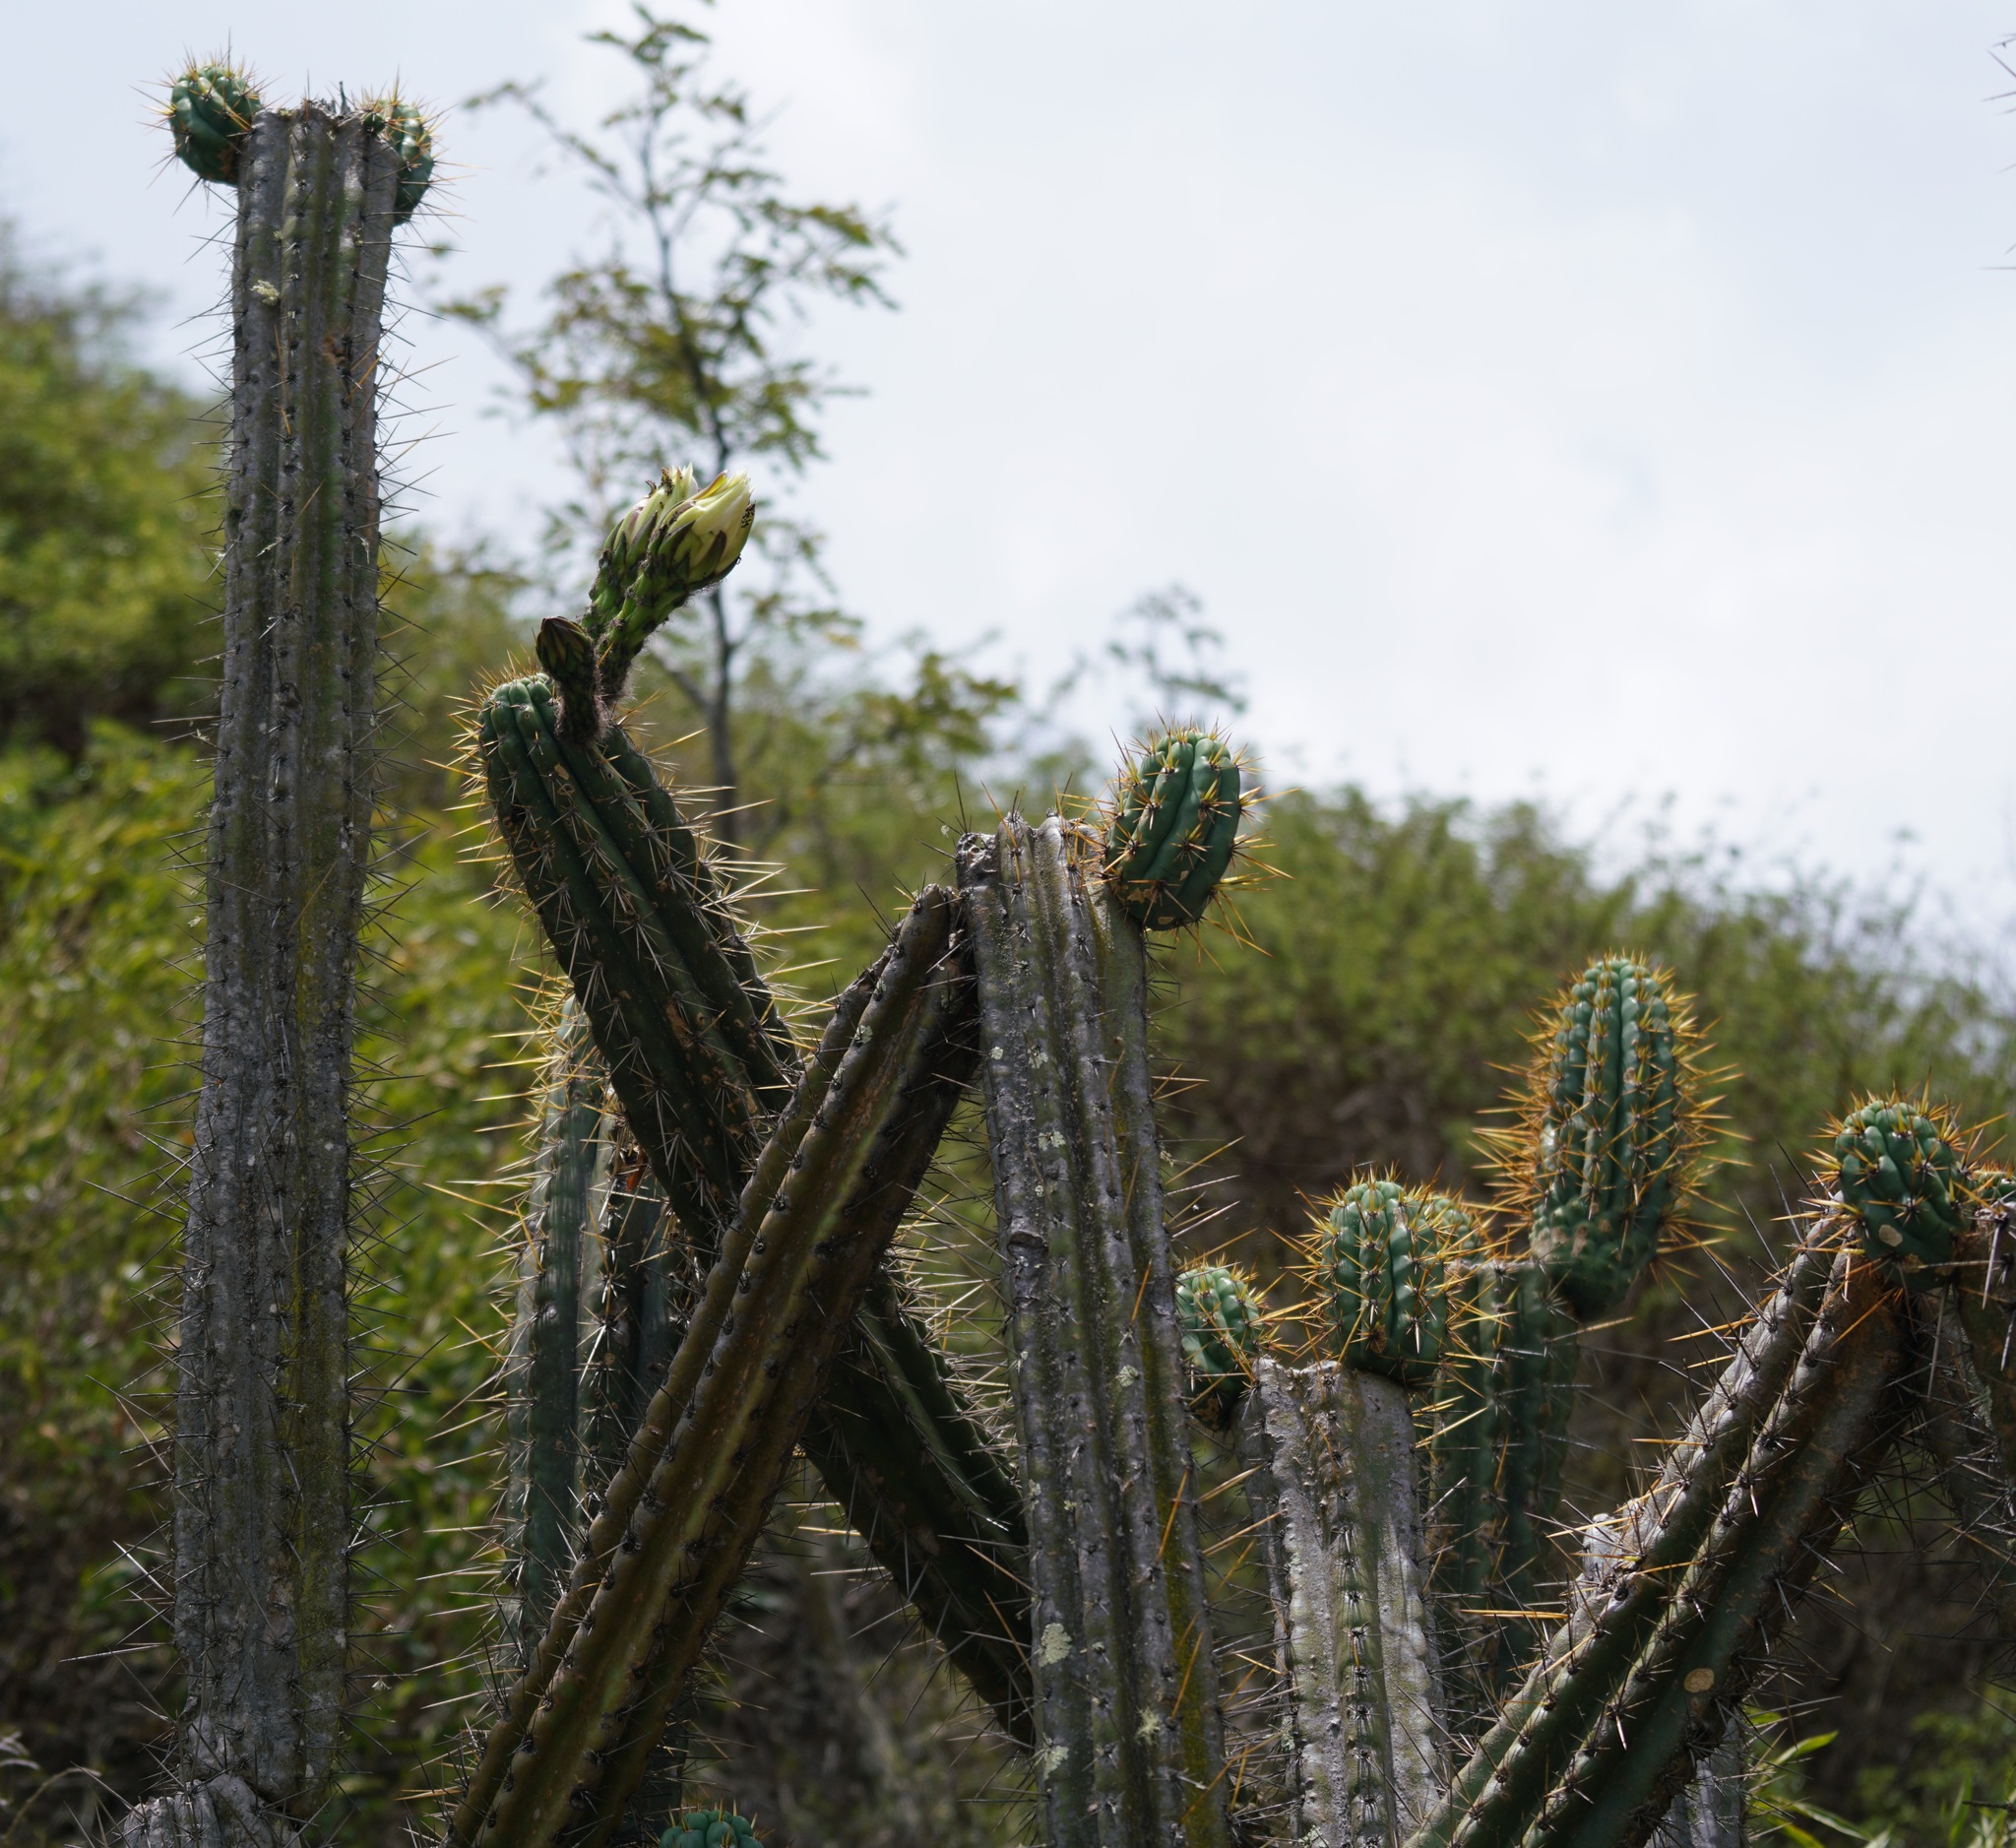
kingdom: Plantae
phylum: Tracheophyta
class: Magnoliopsida
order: Caryophyllales
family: Cactaceae
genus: Trichocereus
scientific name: Trichocereus cuzcoensis
